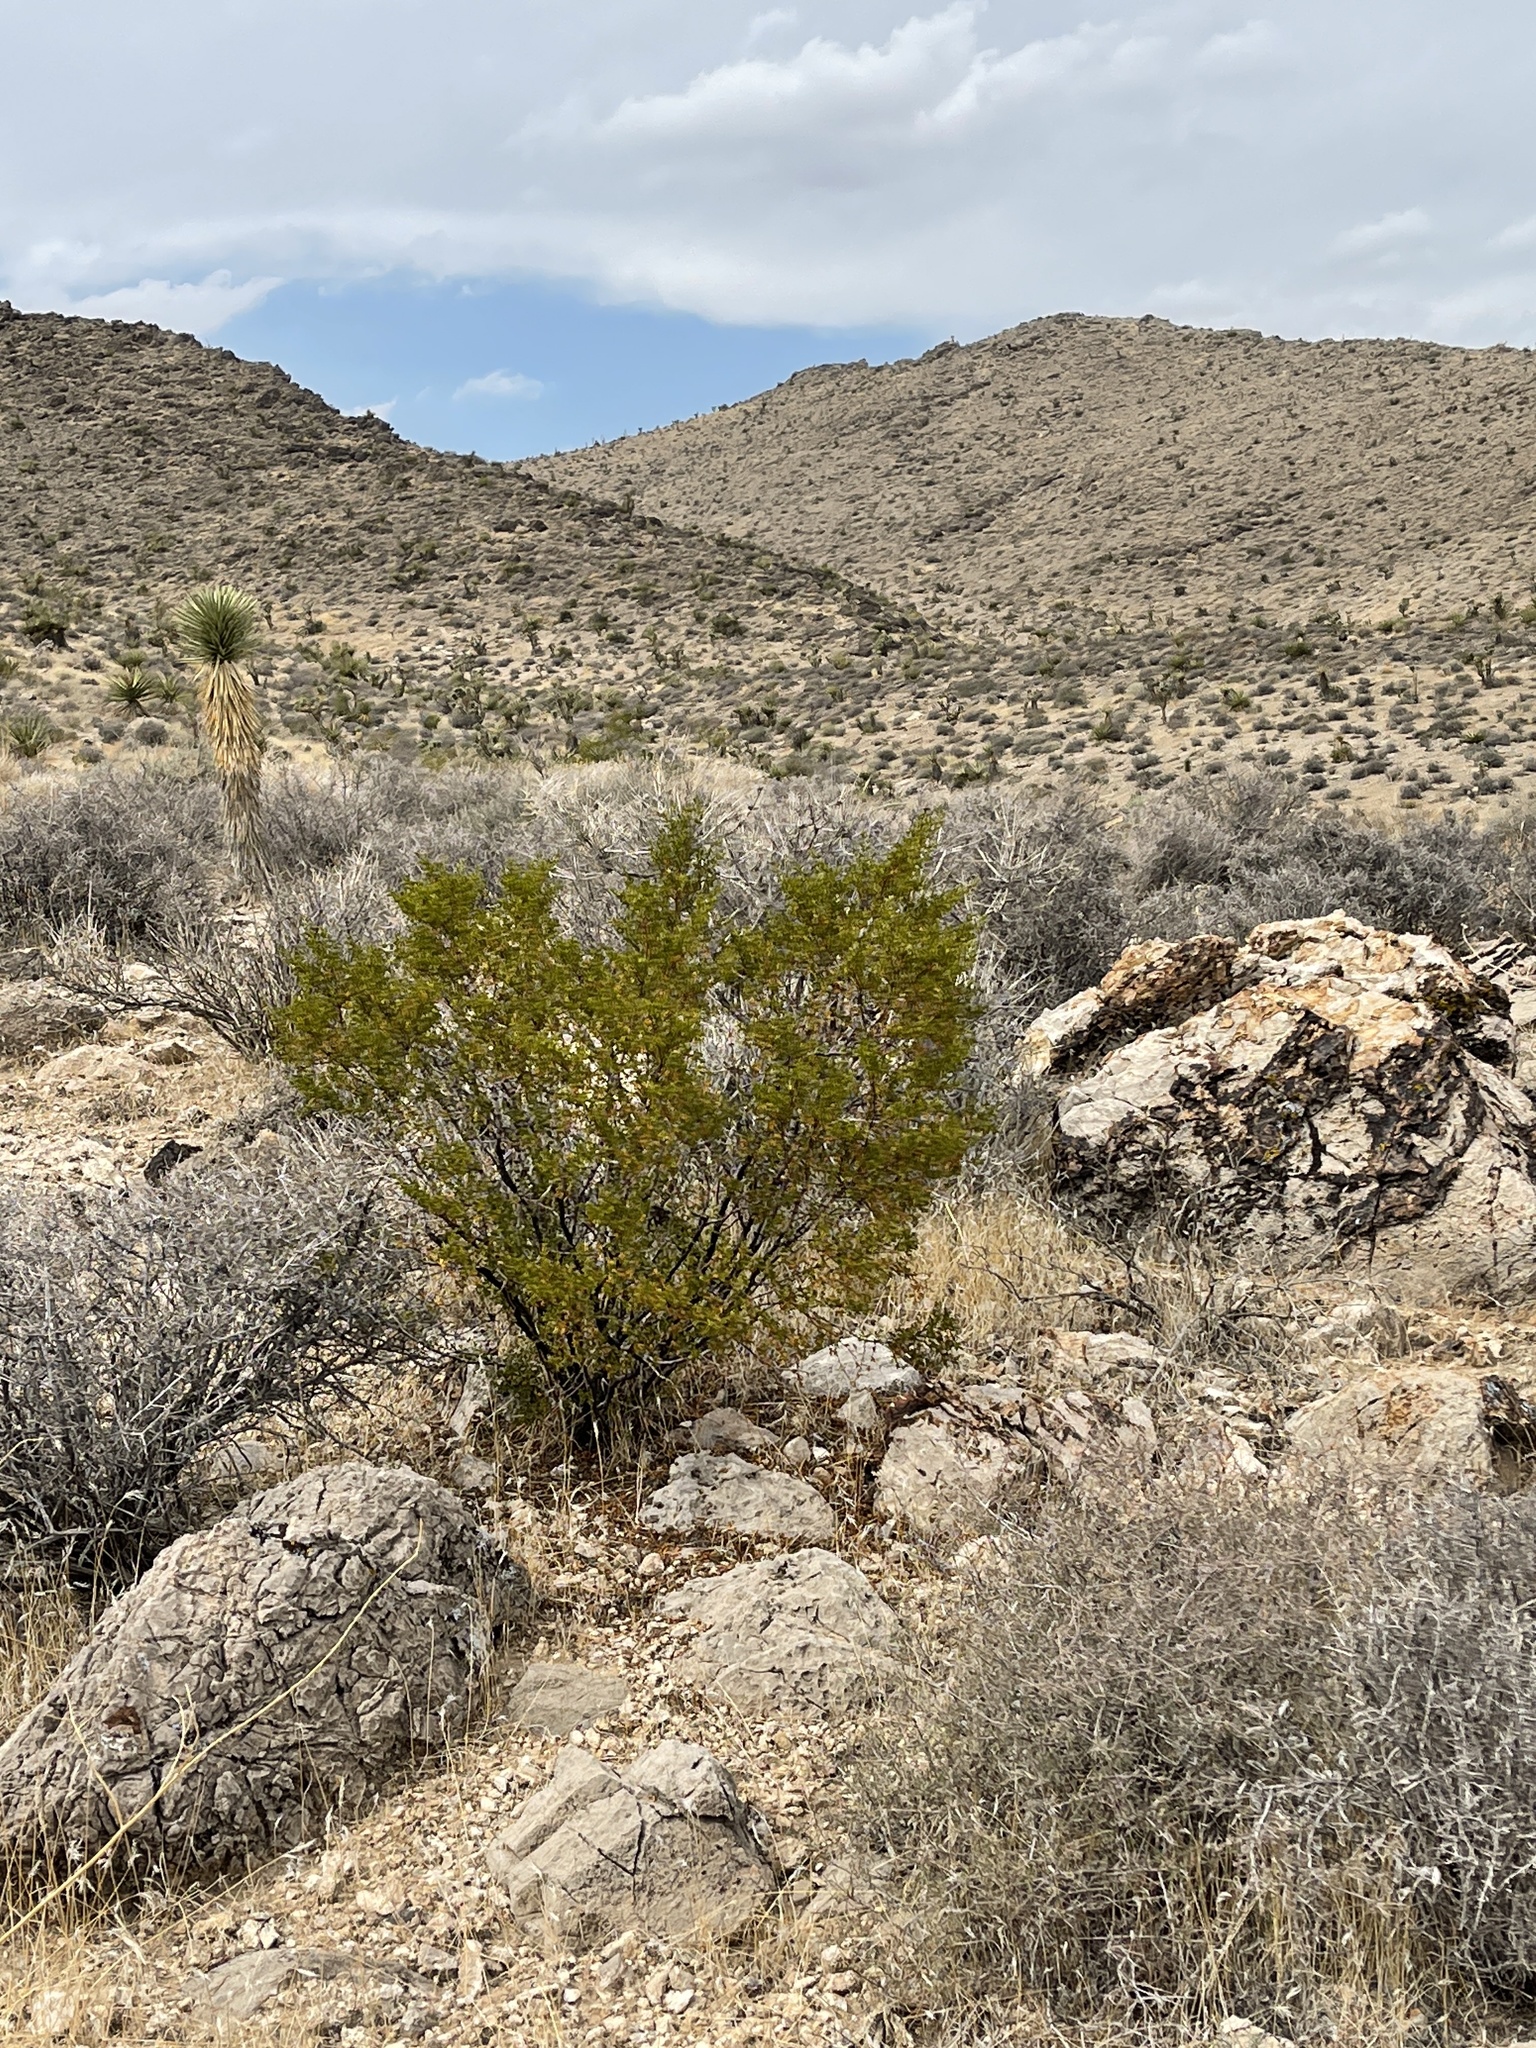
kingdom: Plantae
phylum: Tracheophyta
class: Magnoliopsida
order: Zygophyllales
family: Zygophyllaceae
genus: Larrea
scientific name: Larrea tridentata
